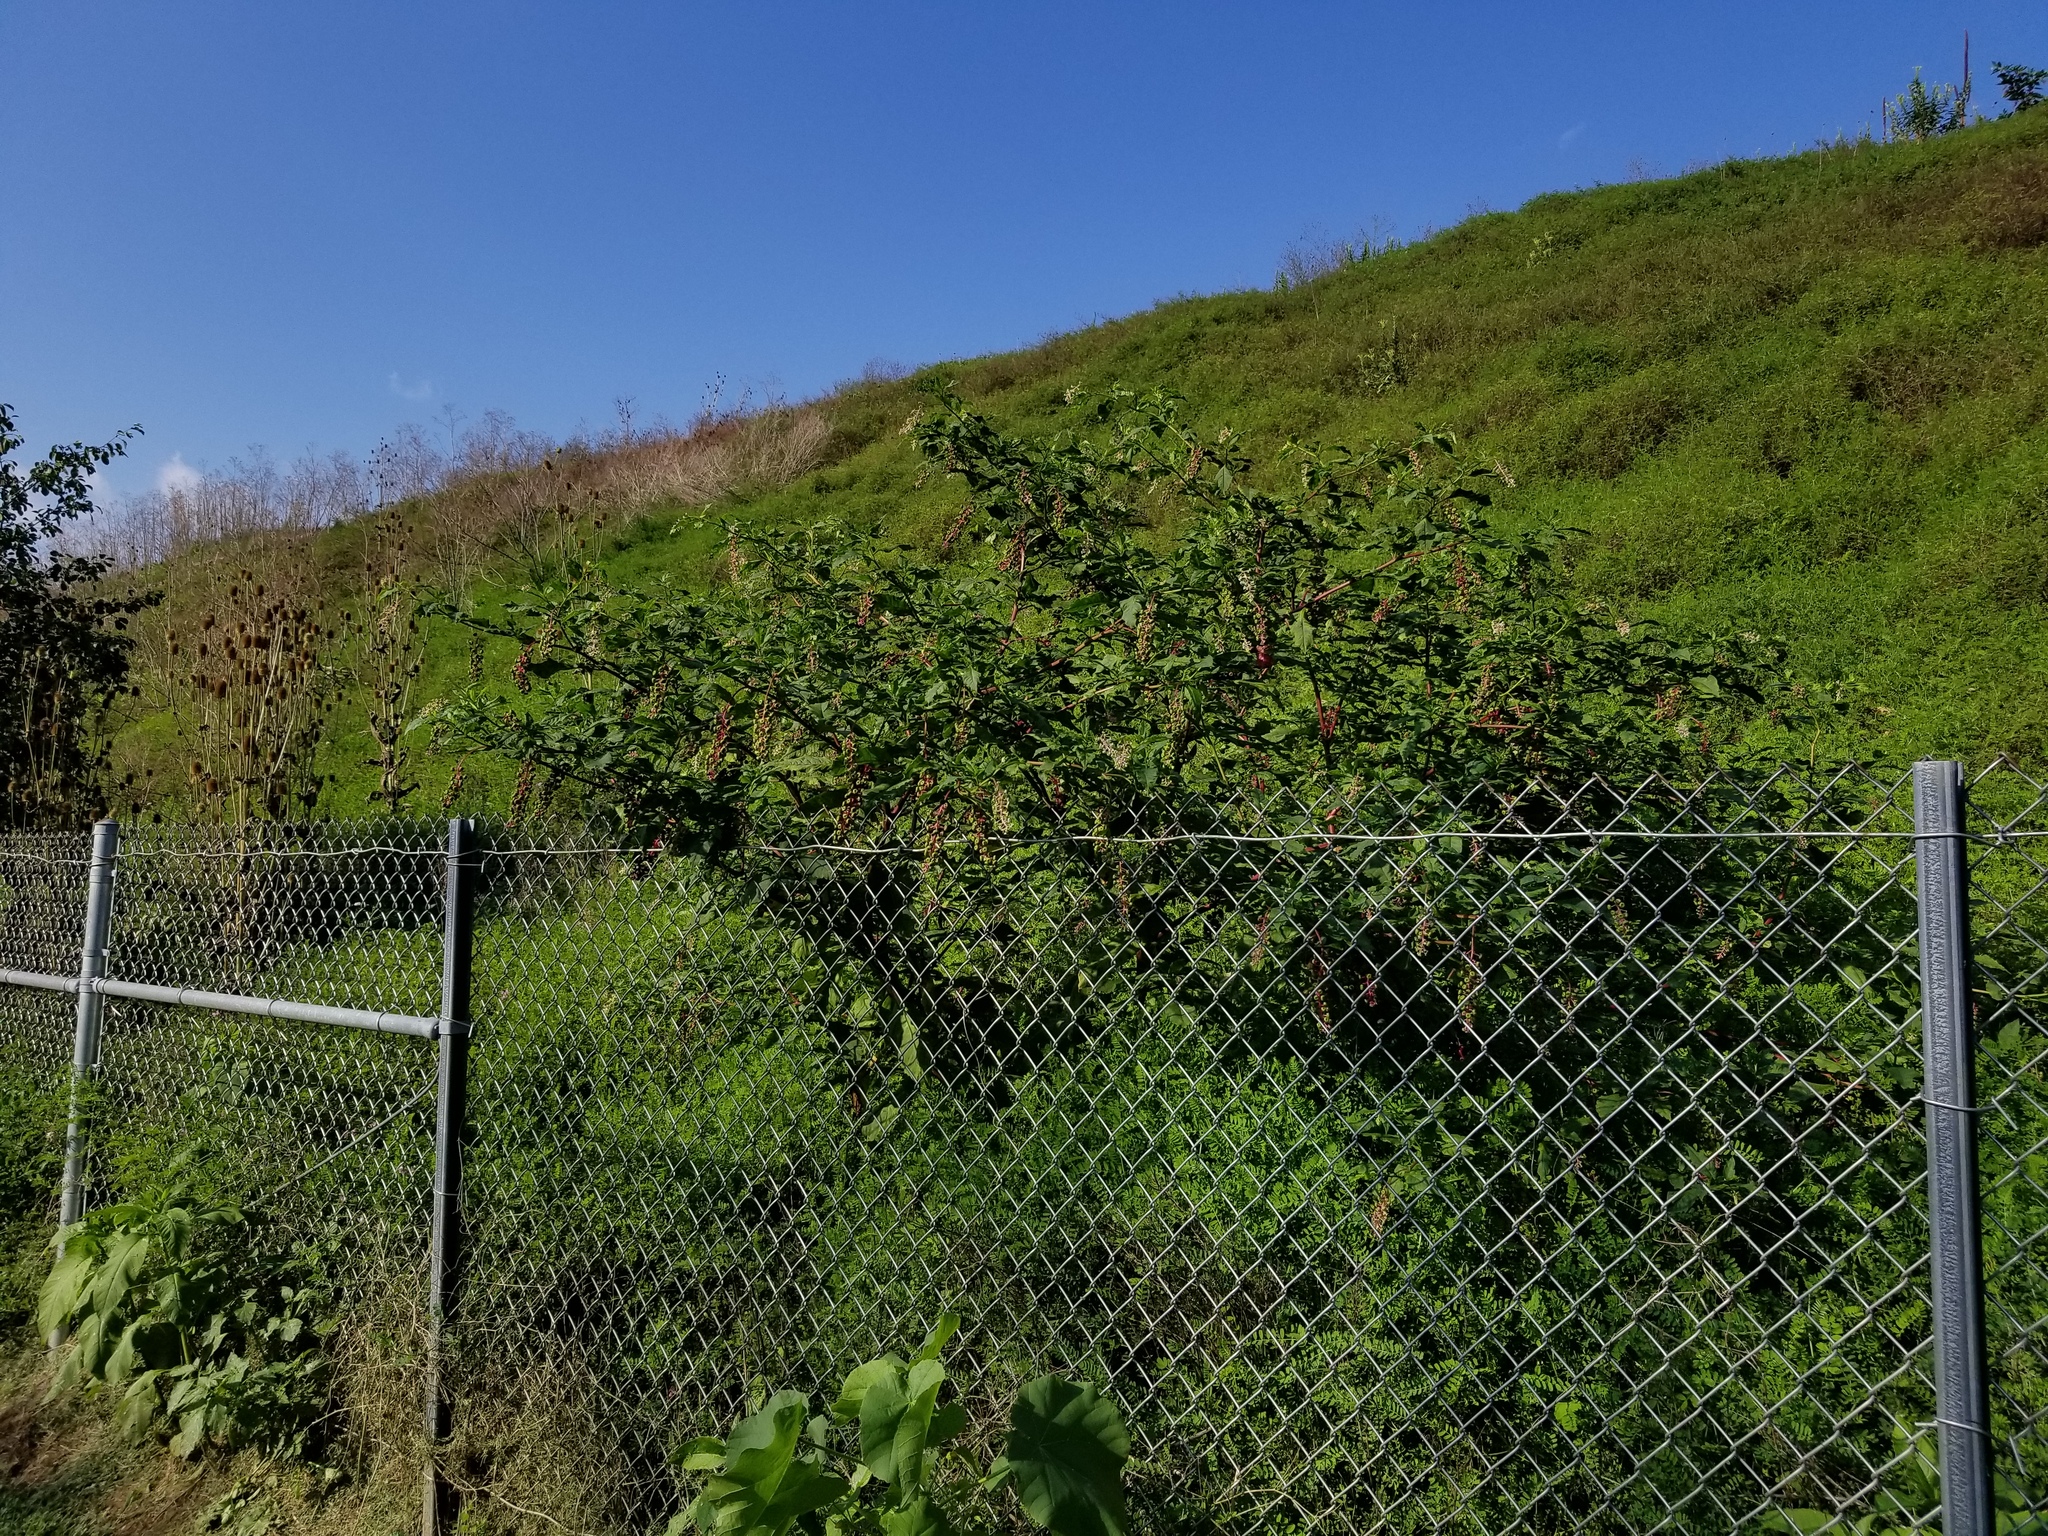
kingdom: Plantae
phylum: Tracheophyta
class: Magnoliopsida
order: Caryophyllales
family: Phytolaccaceae
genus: Phytolacca
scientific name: Phytolacca americana
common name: American pokeweed
